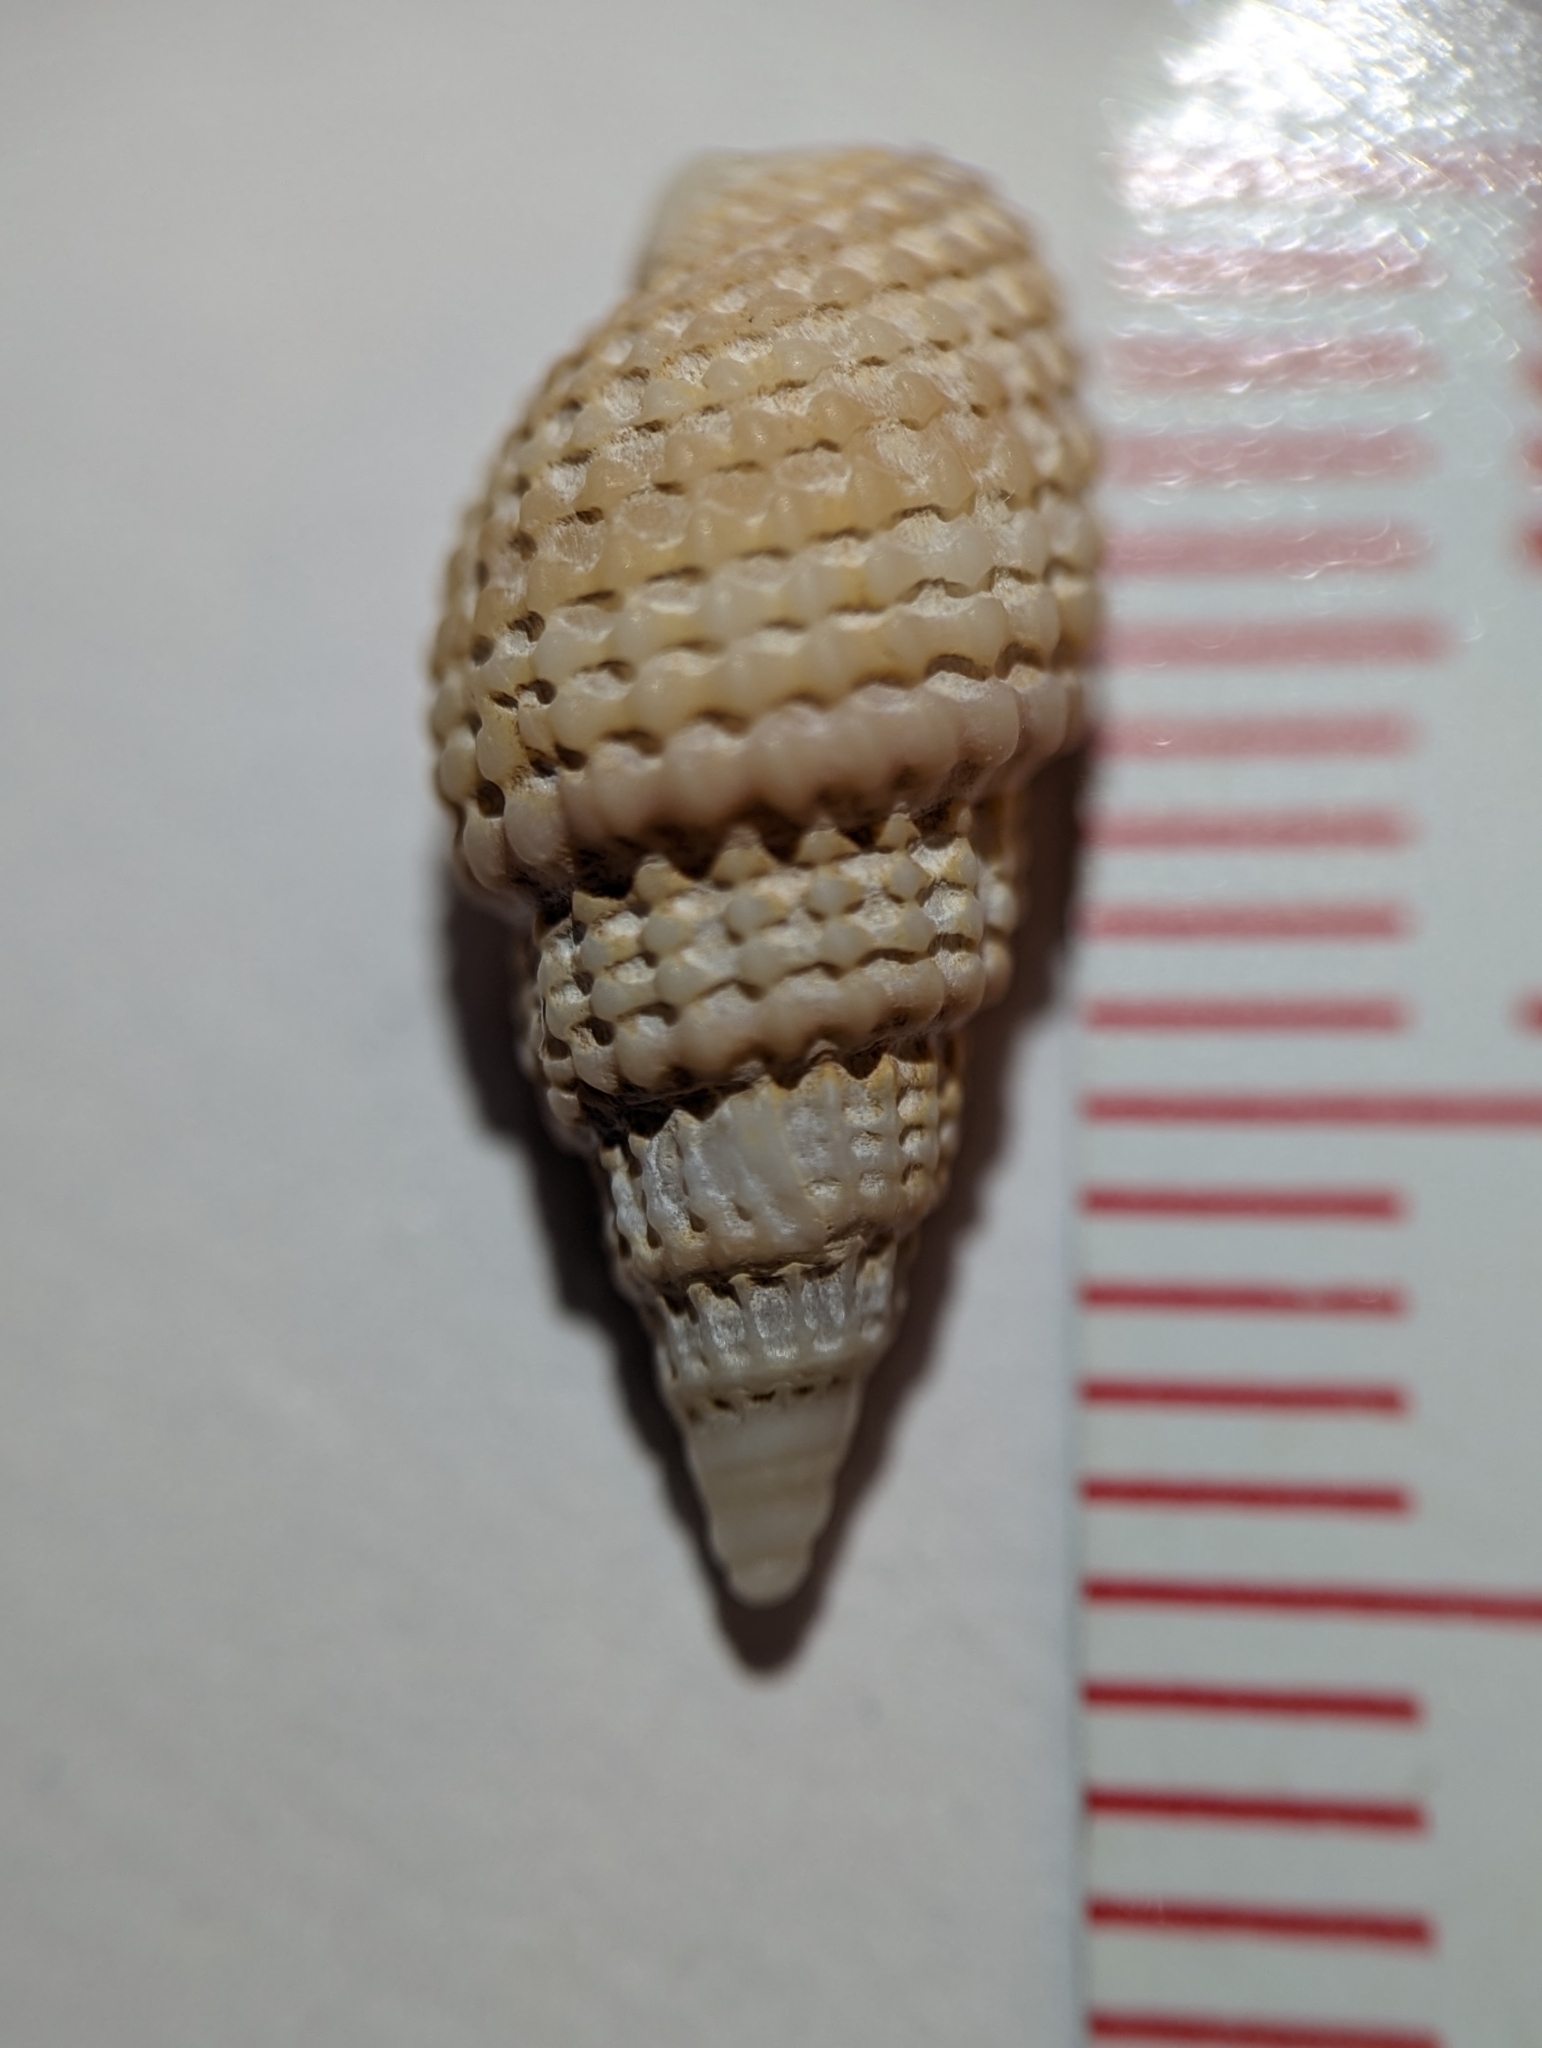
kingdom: Animalia
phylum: Mollusca
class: Gastropoda
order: Neogastropoda
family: Nassariidae
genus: Ilyanassa
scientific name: Ilyanassa trivittata
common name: Three-line mudsnail
